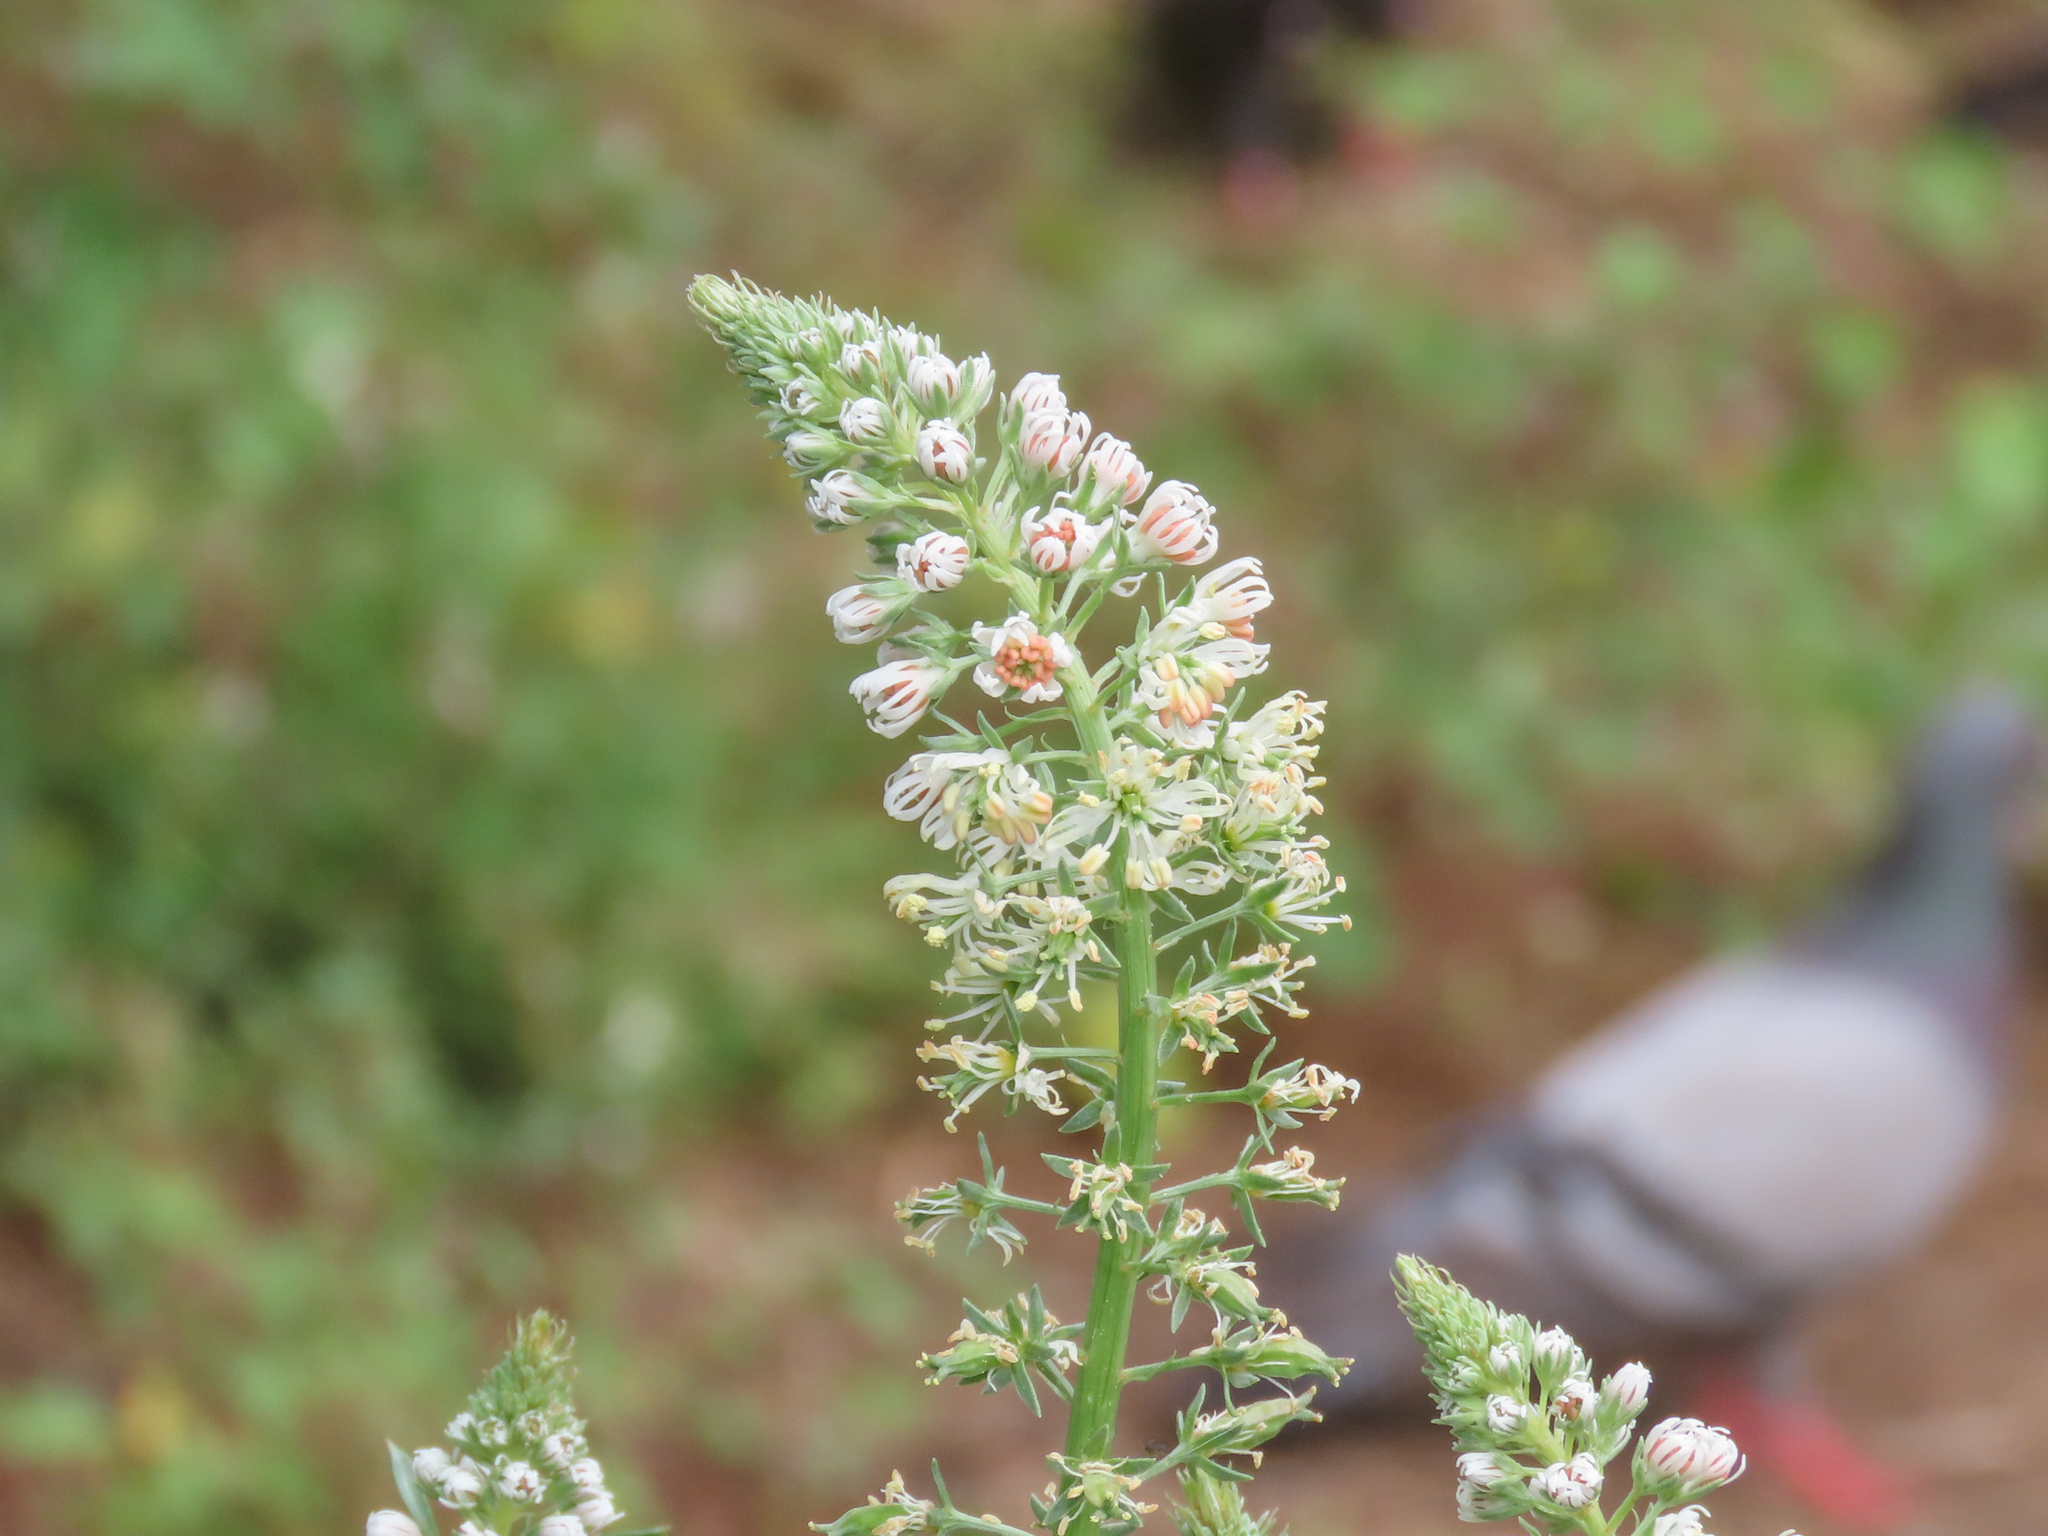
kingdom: Plantae
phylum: Tracheophyta
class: Magnoliopsida
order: Brassicales
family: Resedaceae
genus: Reseda
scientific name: Reseda alba
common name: White mignonette
